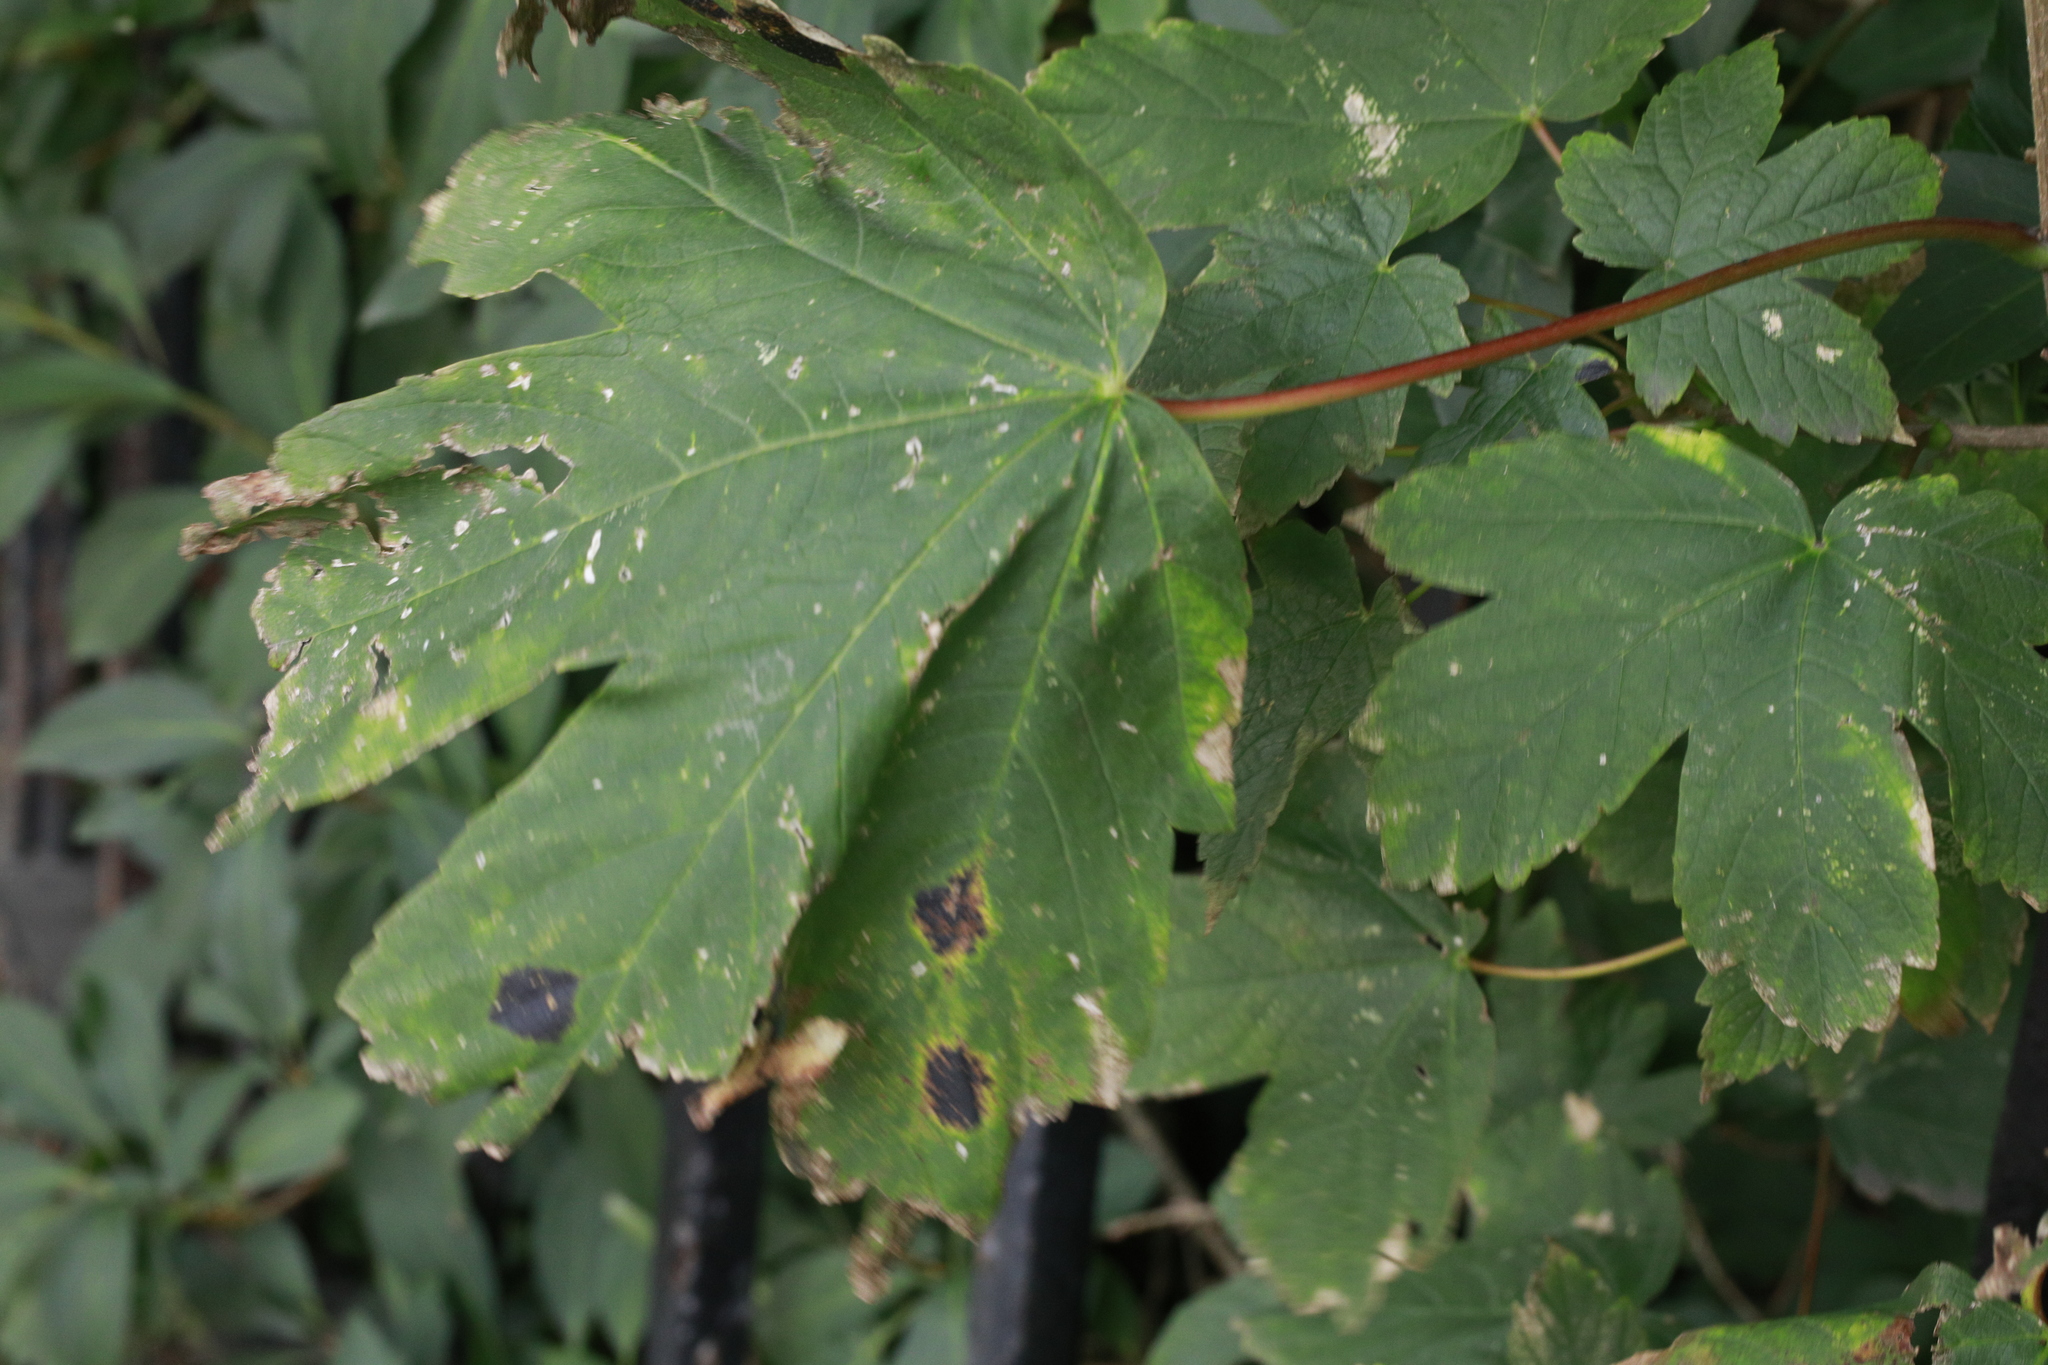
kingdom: Plantae
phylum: Tracheophyta
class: Magnoliopsida
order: Sapindales
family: Sapindaceae
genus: Acer
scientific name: Acer pseudoplatanus
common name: Sycamore
